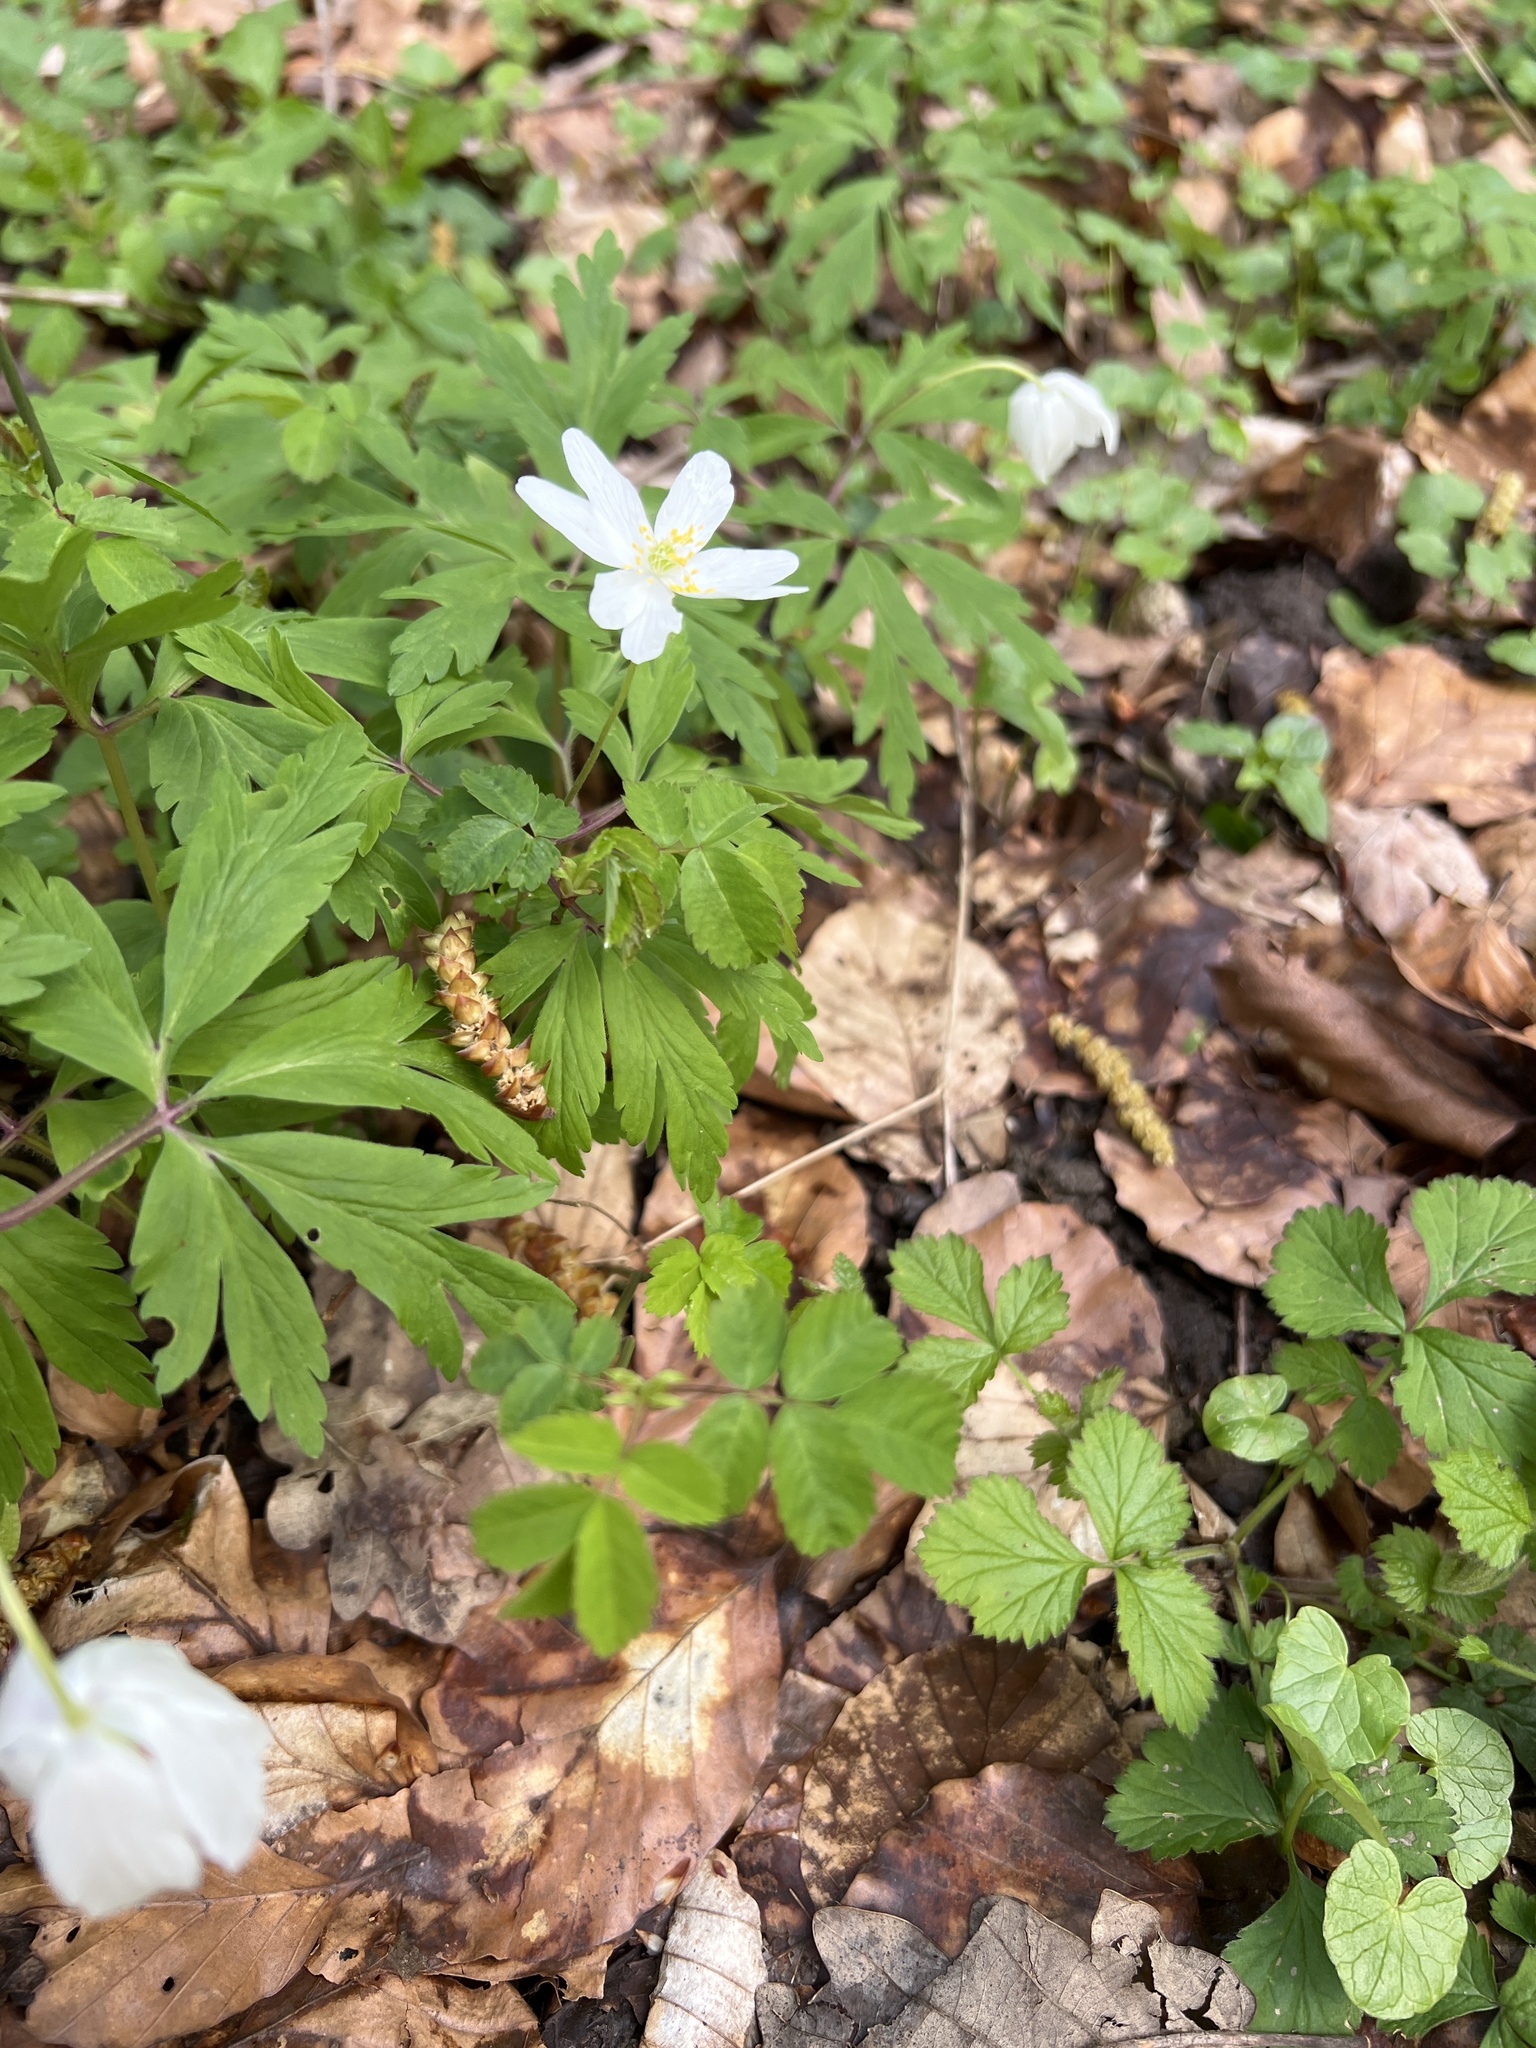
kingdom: Plantae
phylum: Tracheophyta
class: Magnoliopsida
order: Ranunculales
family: Ranunculaceae
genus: Anemone
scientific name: Anemone nemorosa
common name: Wood anemone
